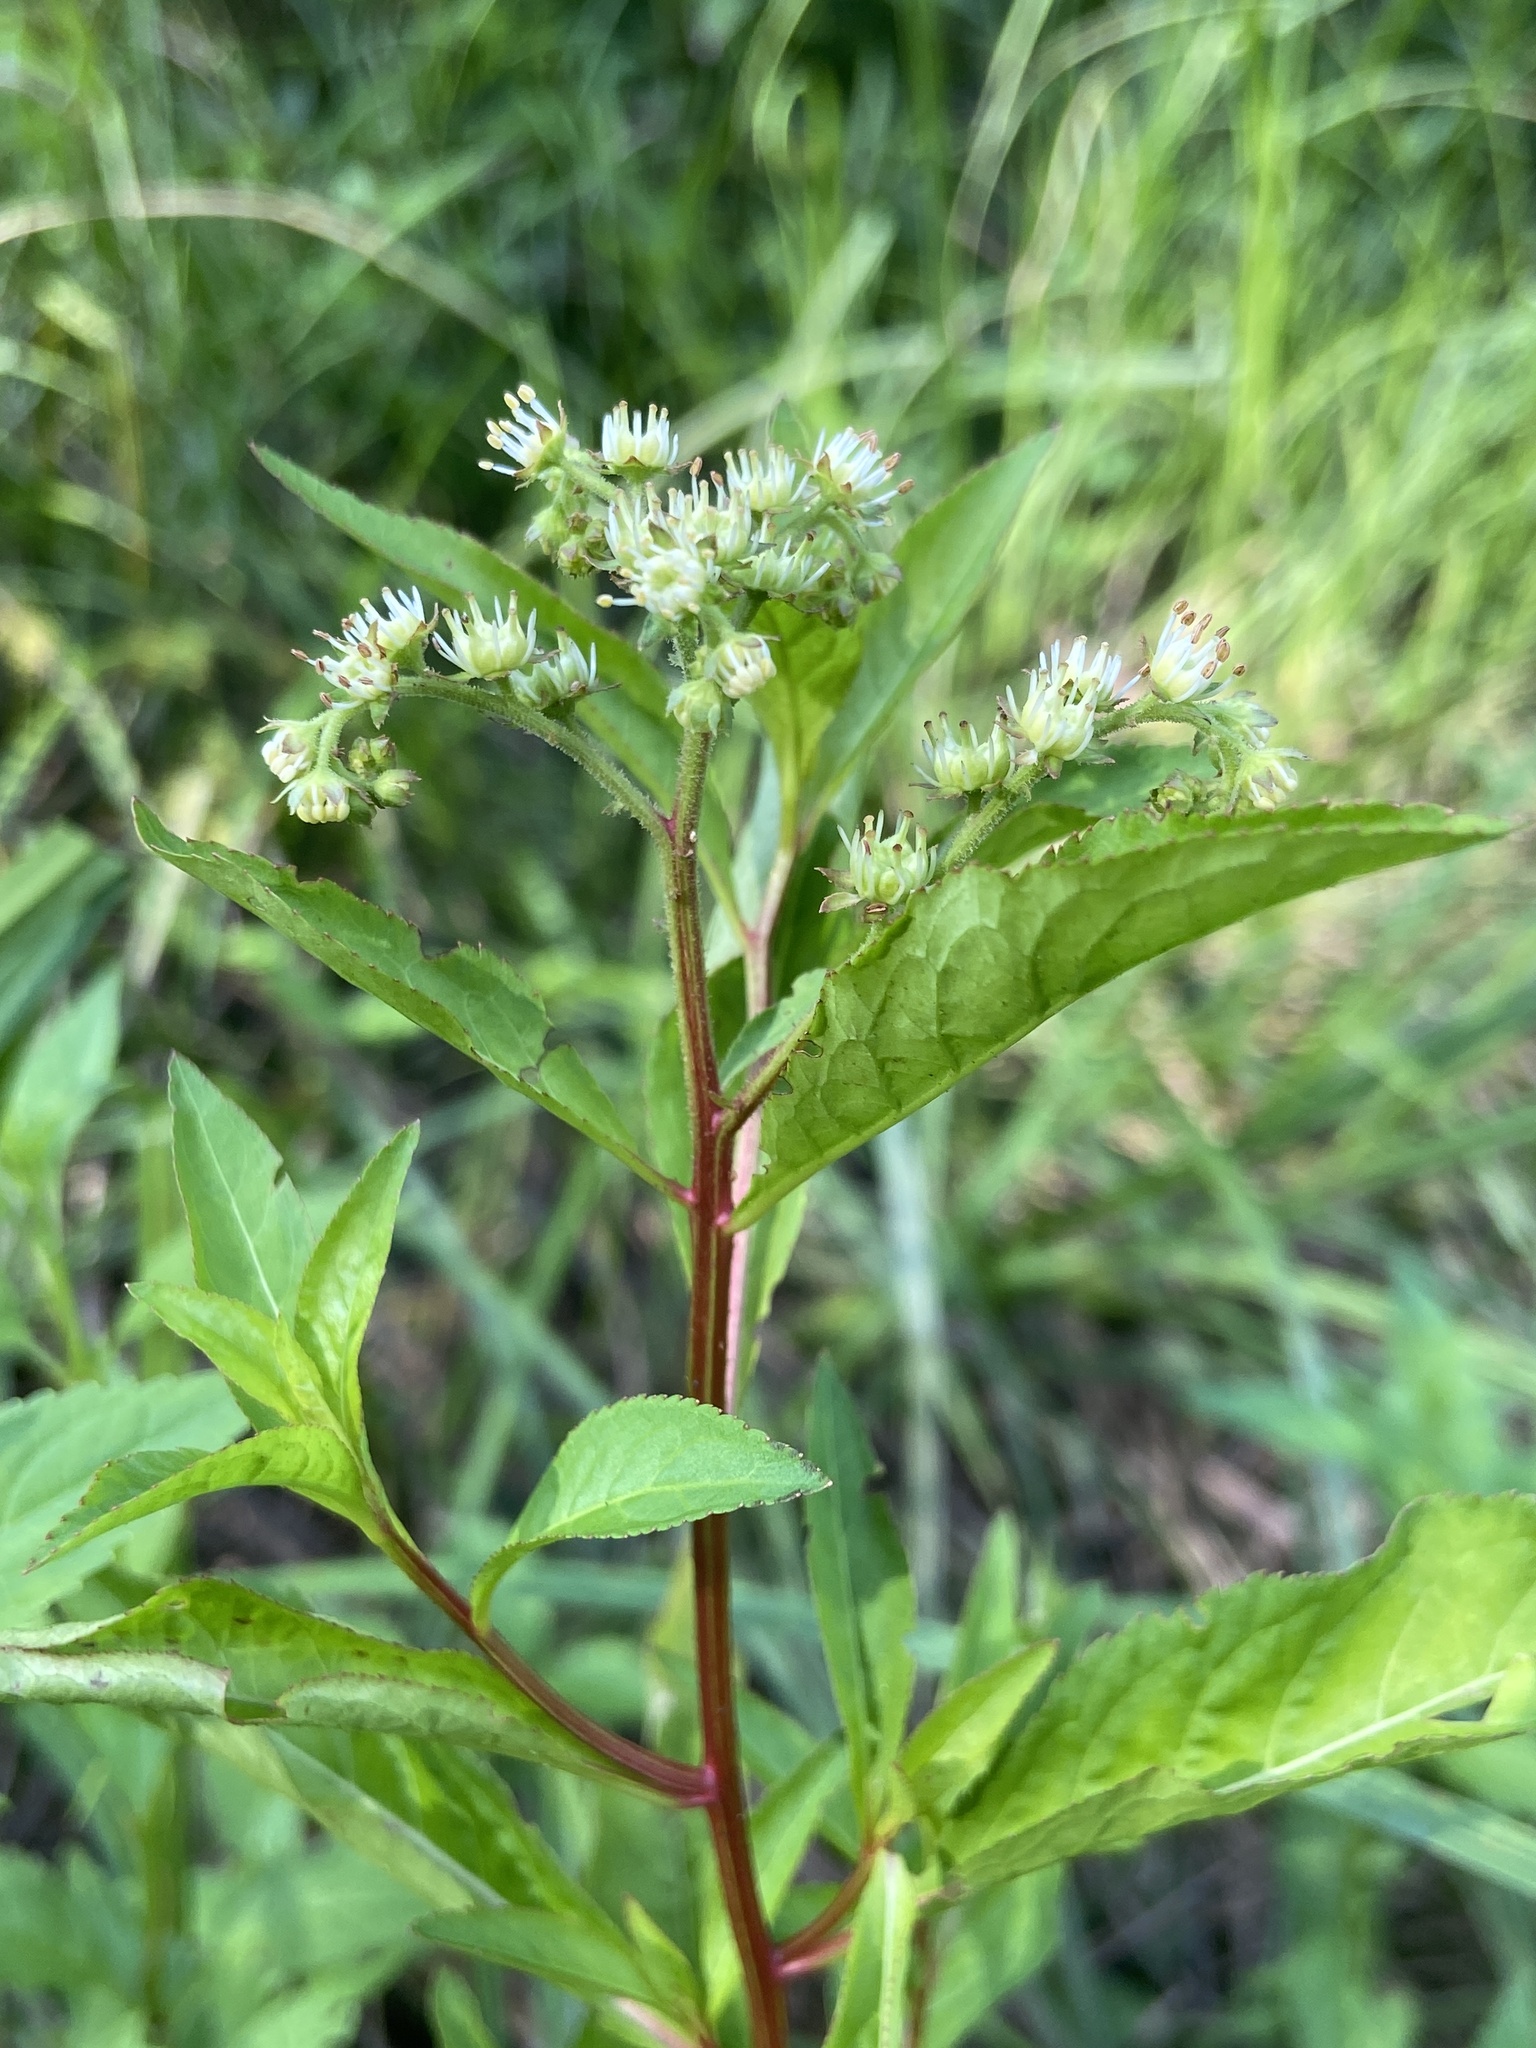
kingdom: Plantae
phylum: Tracheophyta
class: Magnoliopsida
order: Saxifragales
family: Penthoraceae
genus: Penthorum
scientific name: Penthorum sedoides
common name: Ditch stonecrop
